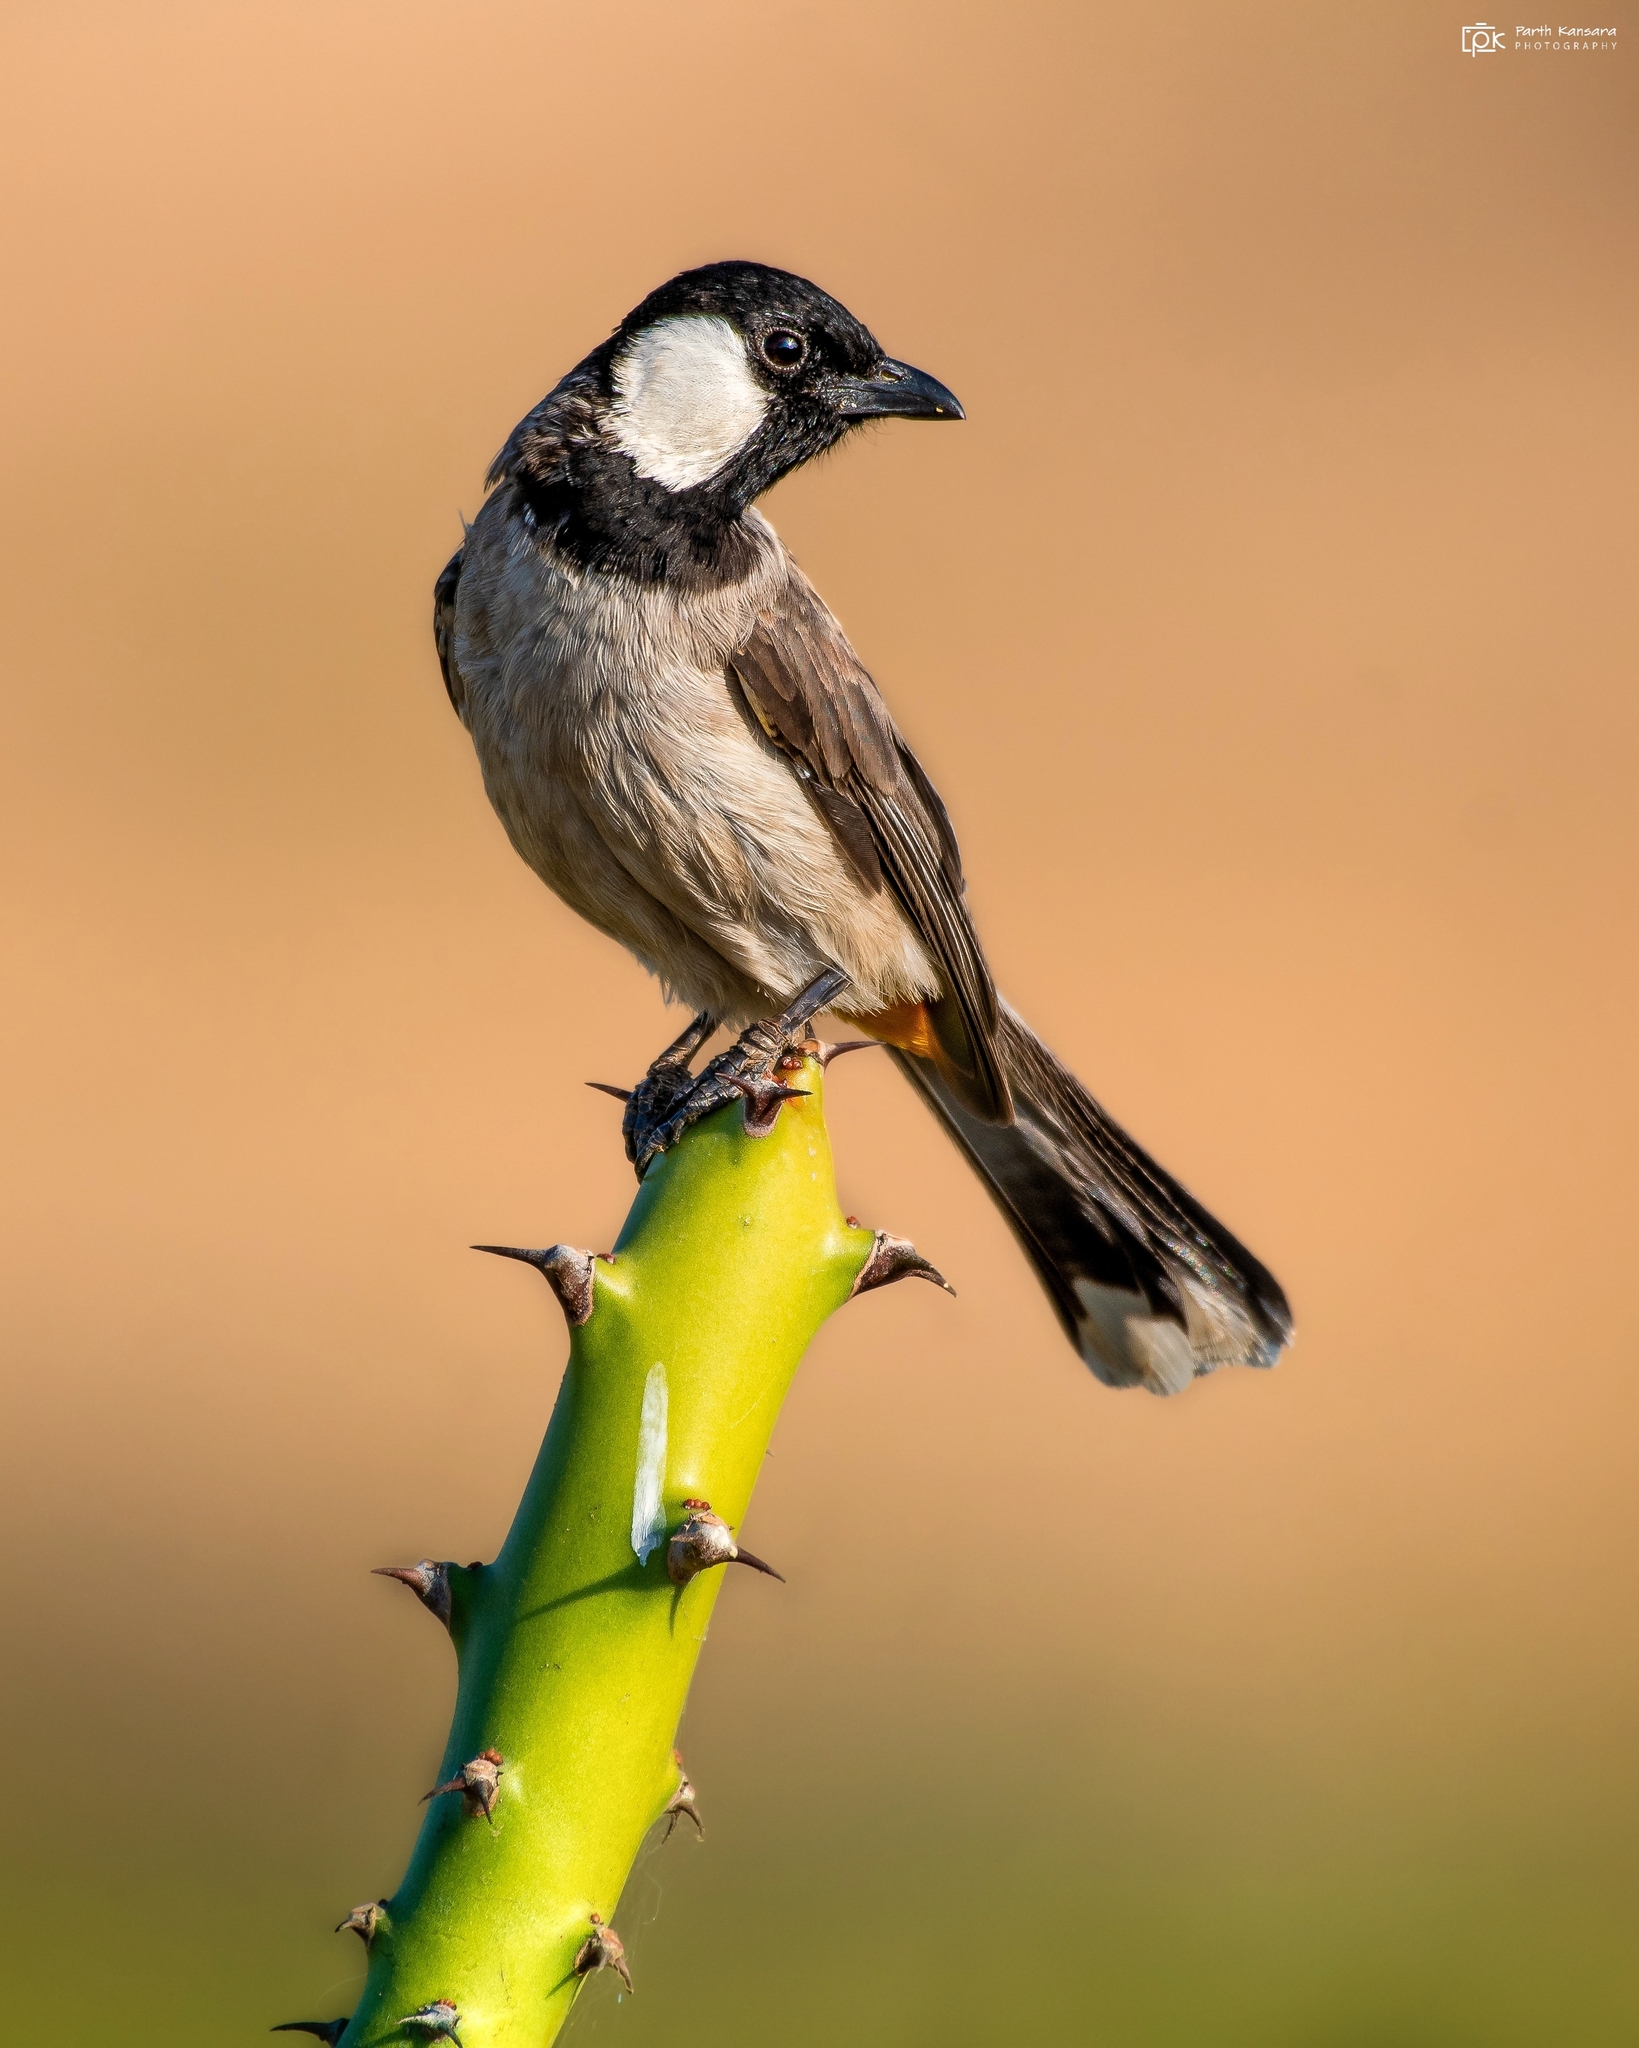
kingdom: Animalia
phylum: Chordata
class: Aves
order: Passeriformes
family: Pycnonotidae
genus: Pycnonotus
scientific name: Pycnonotus leucotis
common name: White-eared bulbul
